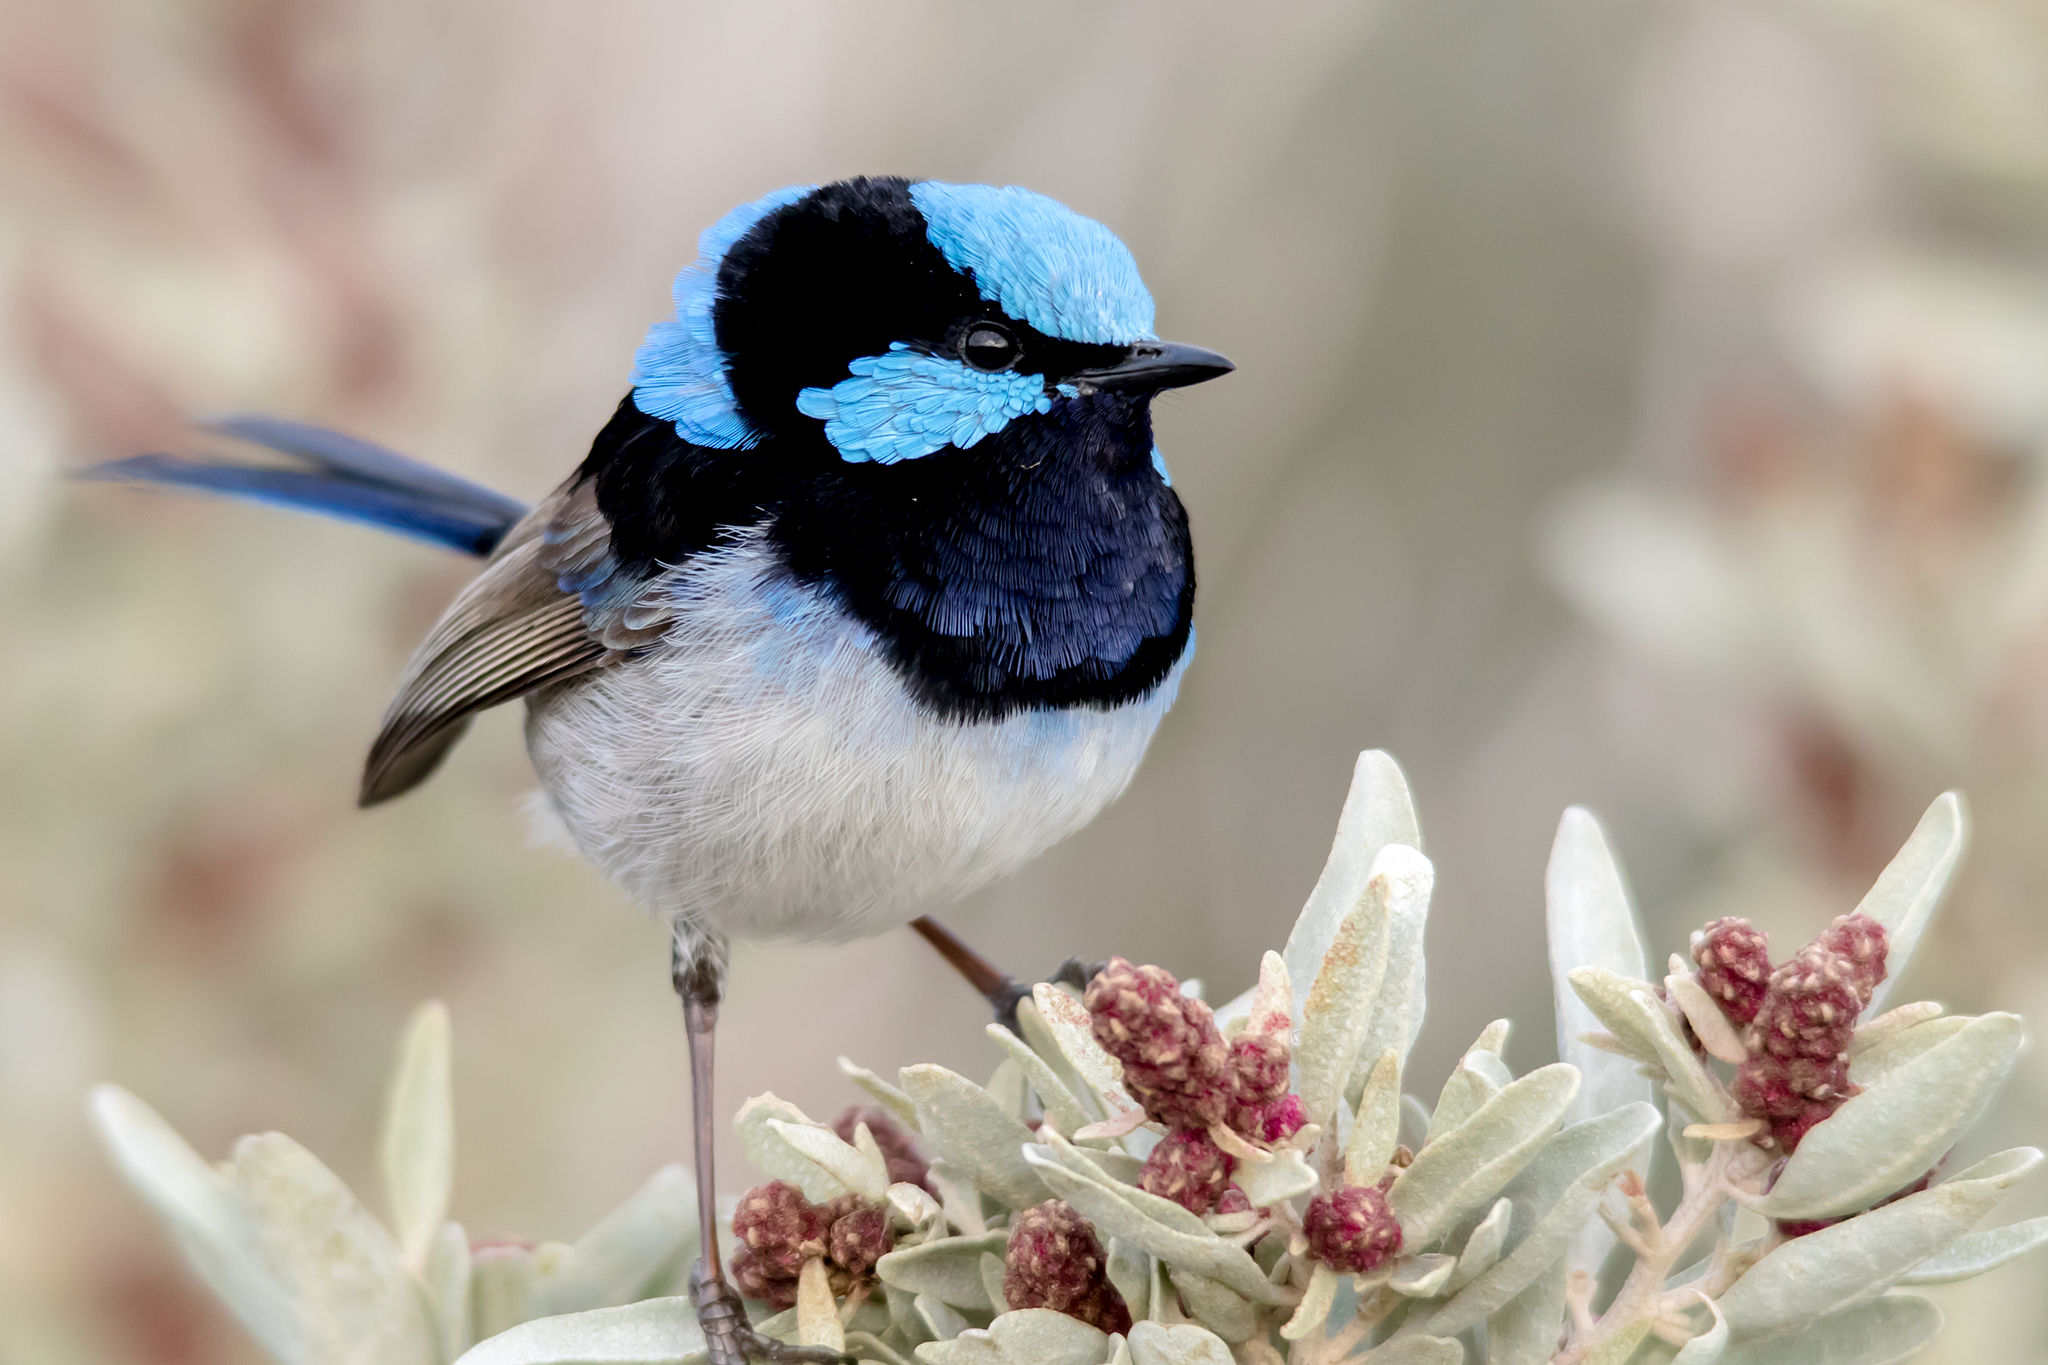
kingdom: Animalia
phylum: Chordata
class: Aves
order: Passeriformes
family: Maluridae
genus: Malurus
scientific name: Malurus cyaneus
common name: Superb fairywren
